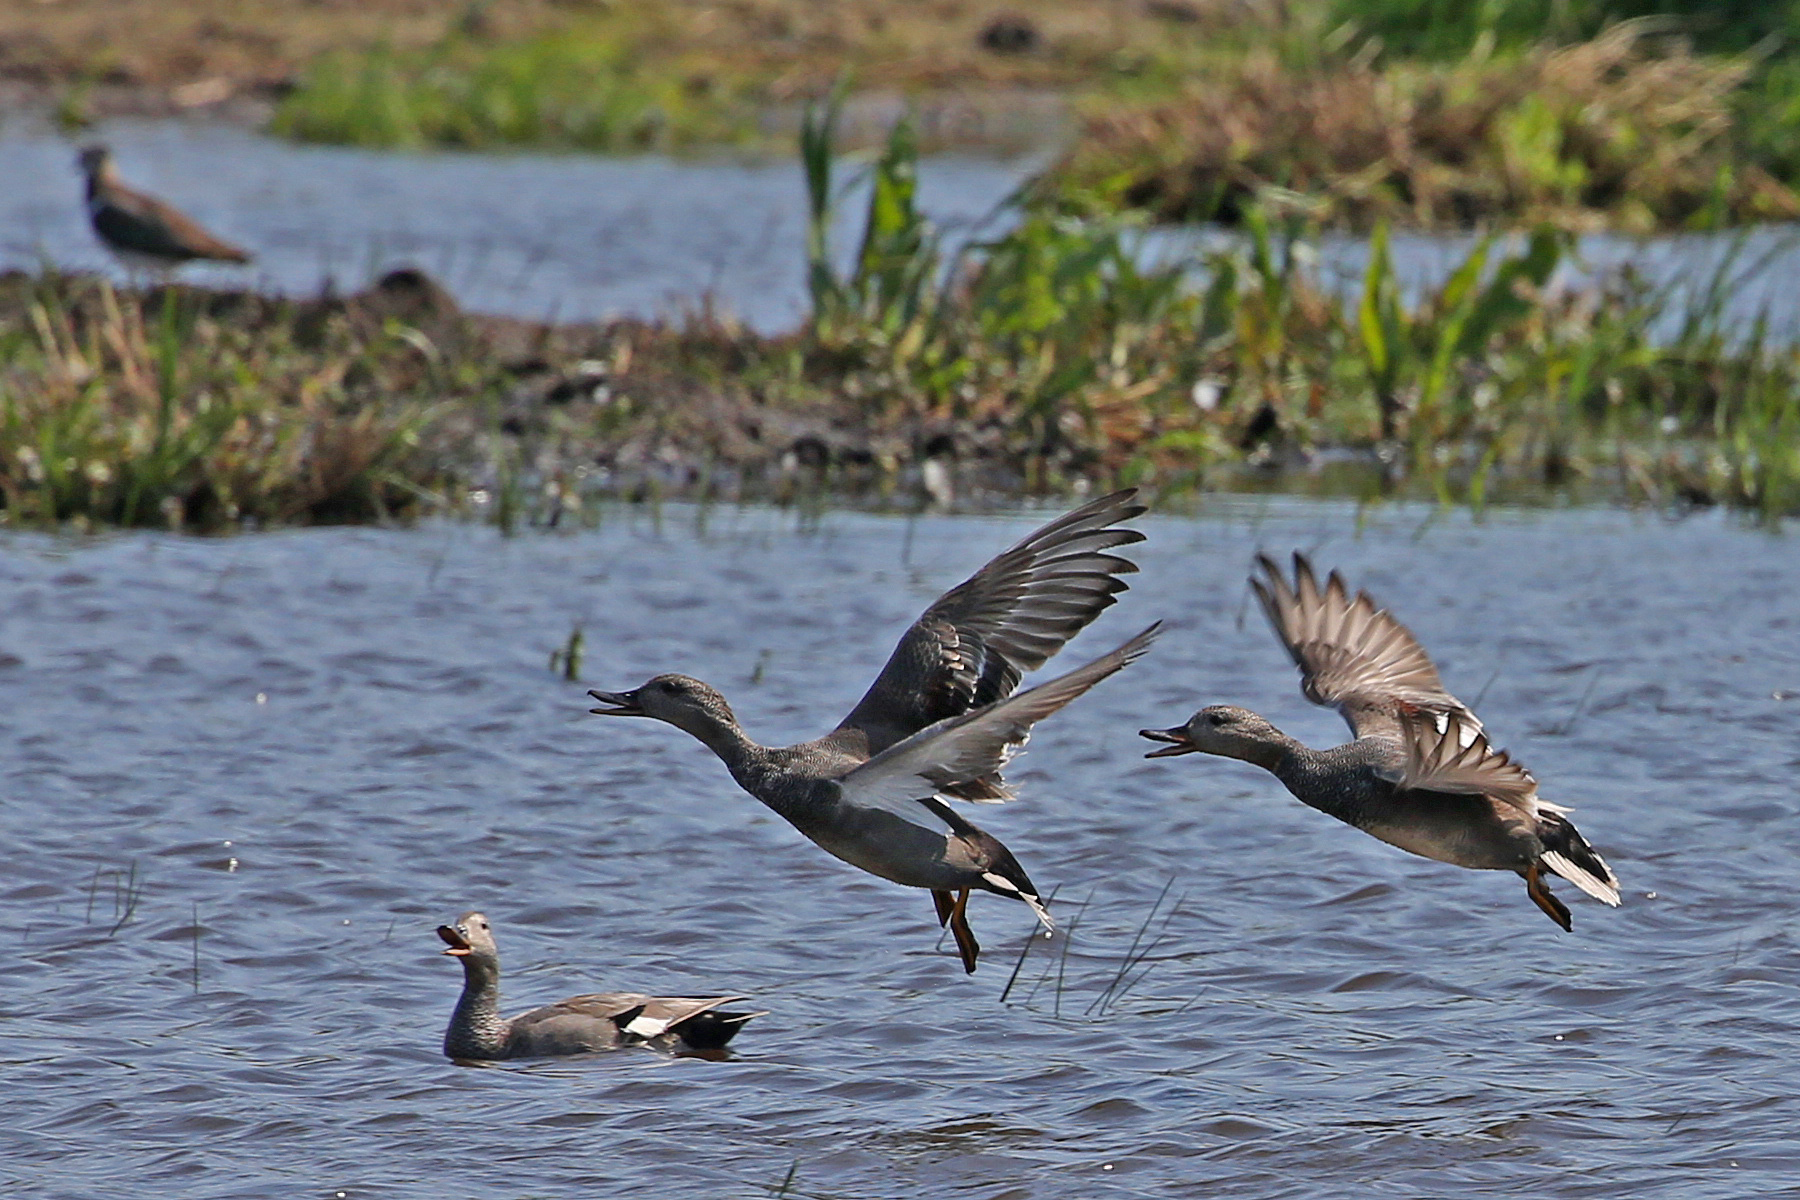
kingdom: Animalia
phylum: Chordata
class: Aves
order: Anseriformes
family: Anatidae
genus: Mareca
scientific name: Mareca strepera
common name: Gadwall
